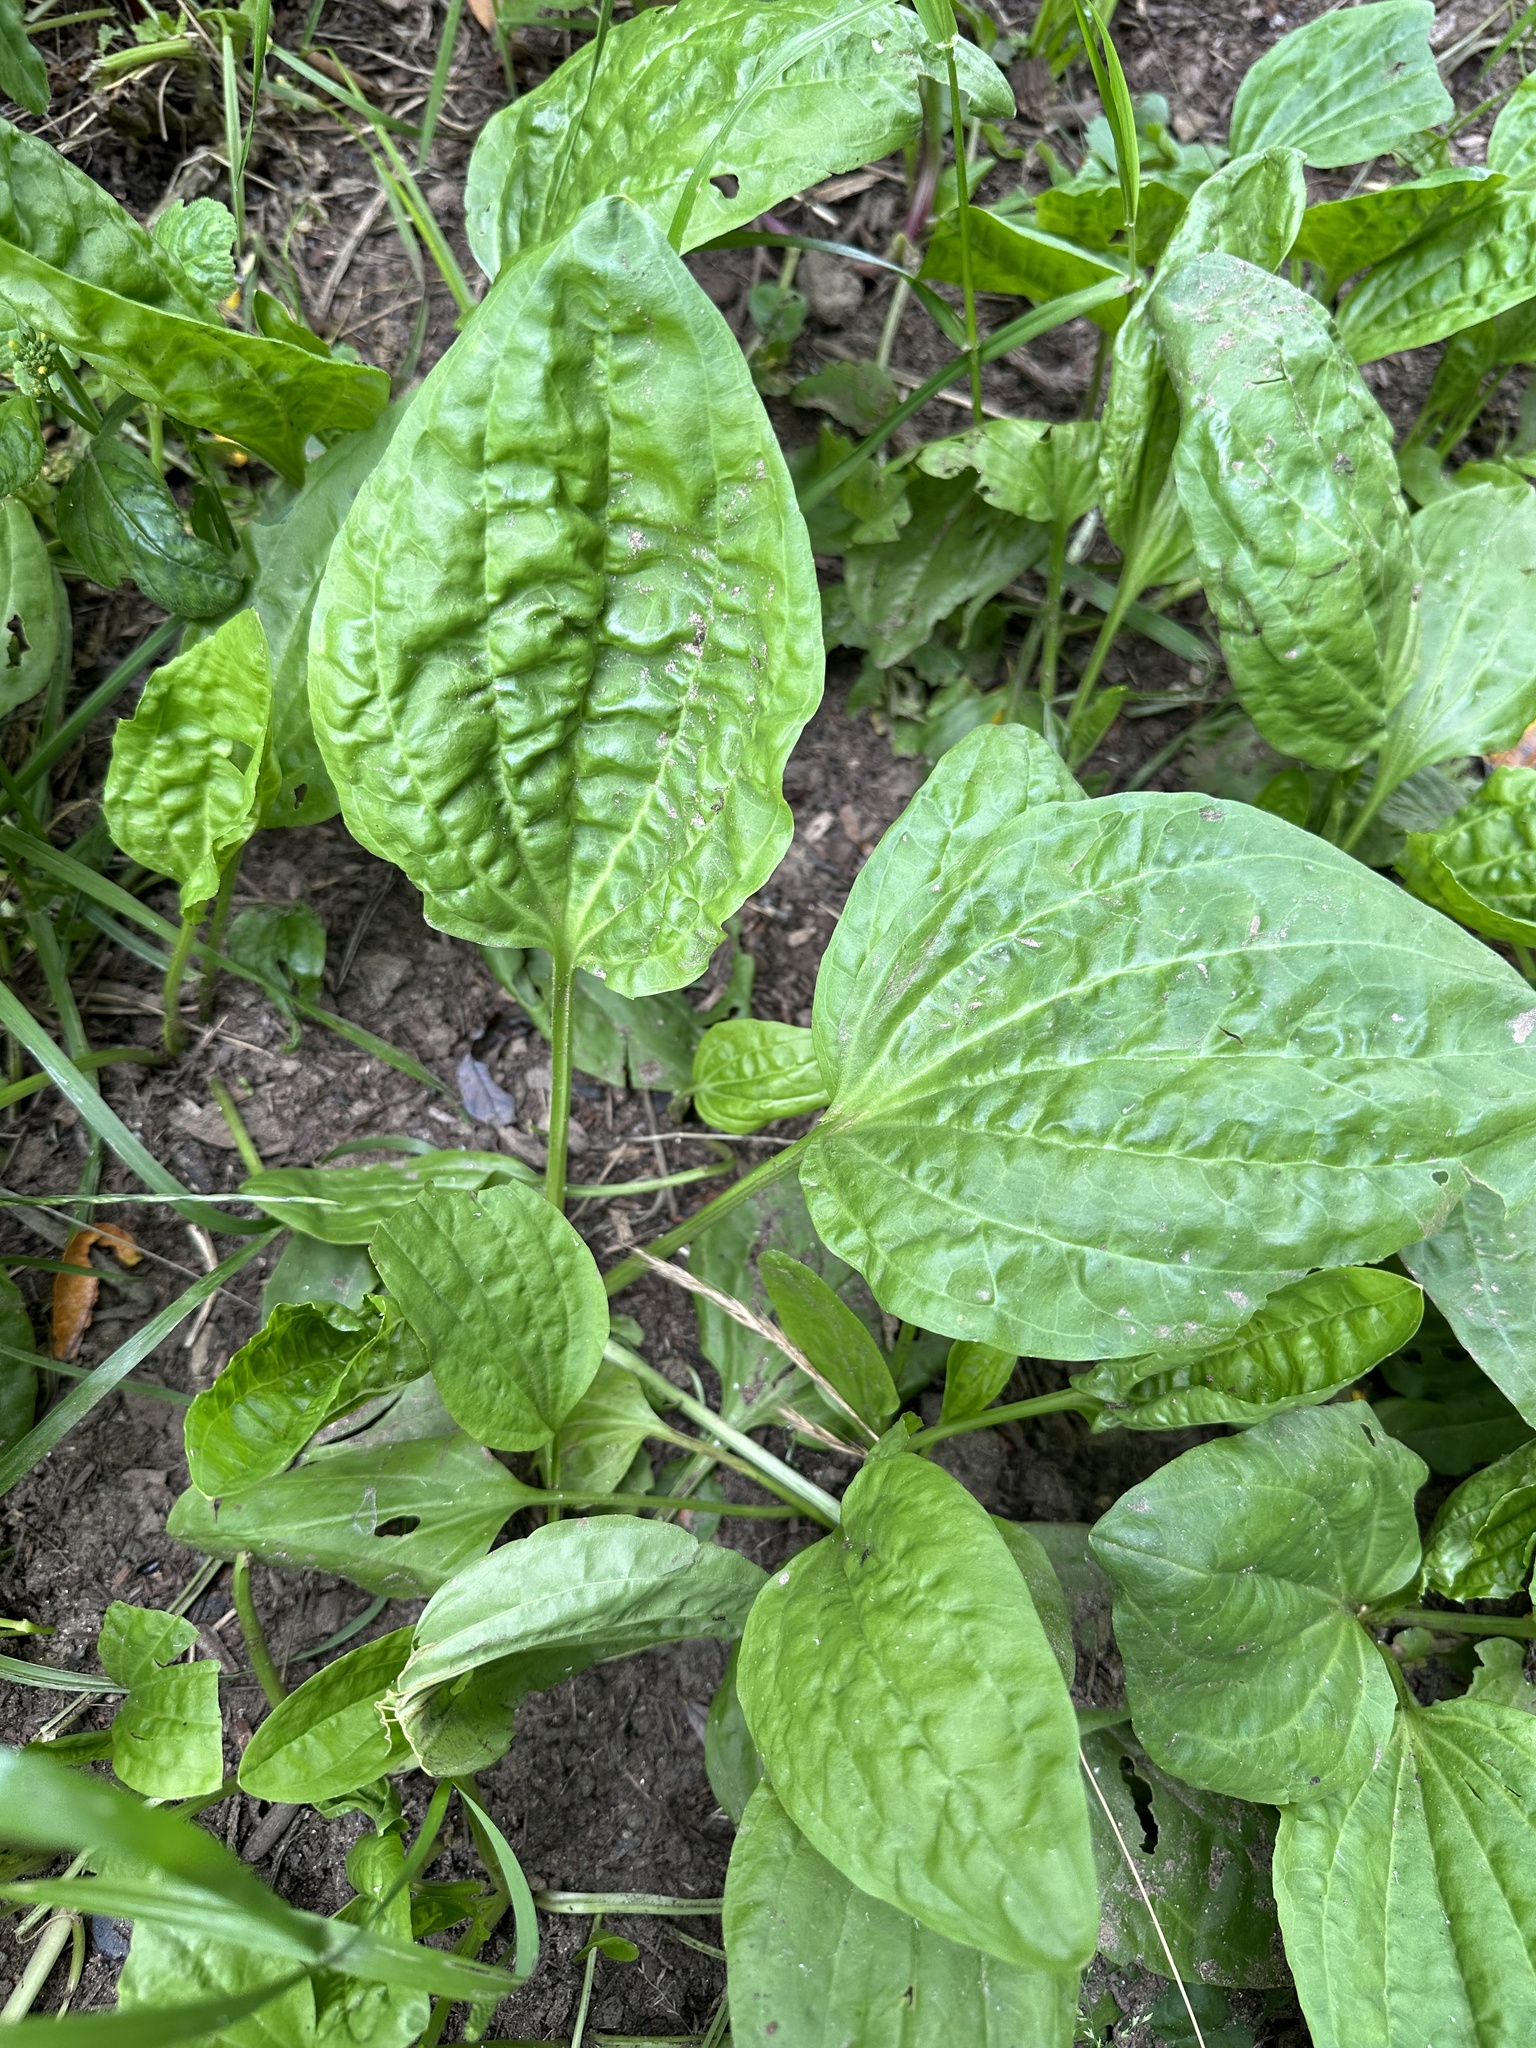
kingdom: Plantae
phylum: Tracheophyta
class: Magnoliopsida
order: Lamiales
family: Plantaginaceae
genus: Plantago
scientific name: Plantago major
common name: Common plantain
